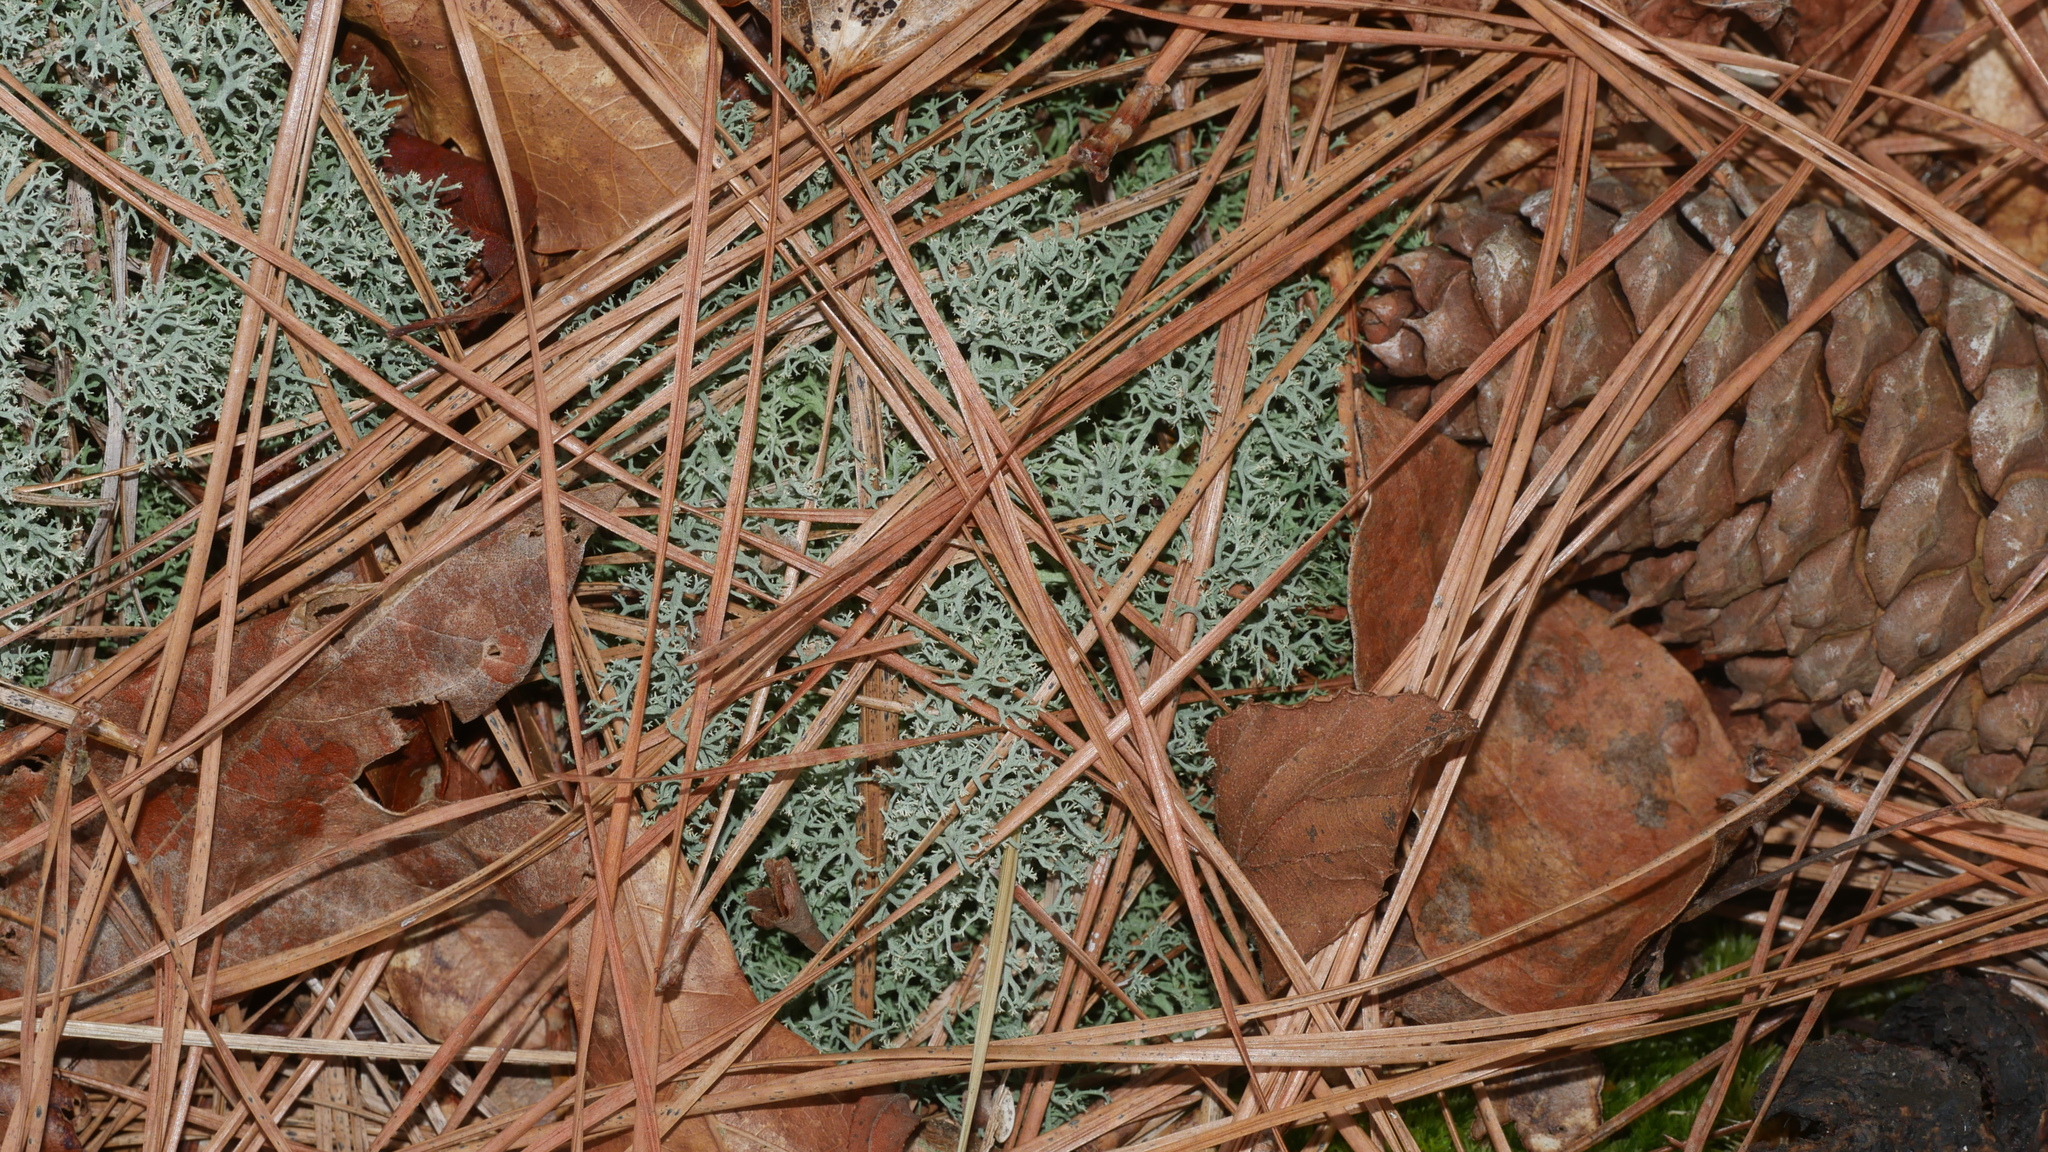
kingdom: Fungi
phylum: Ascomycota
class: Lecanoromycetes
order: Lecanorales
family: Cladoniaceae
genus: Cladonia
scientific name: Cladonia subtenuis
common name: Dixie reindeer lichen
